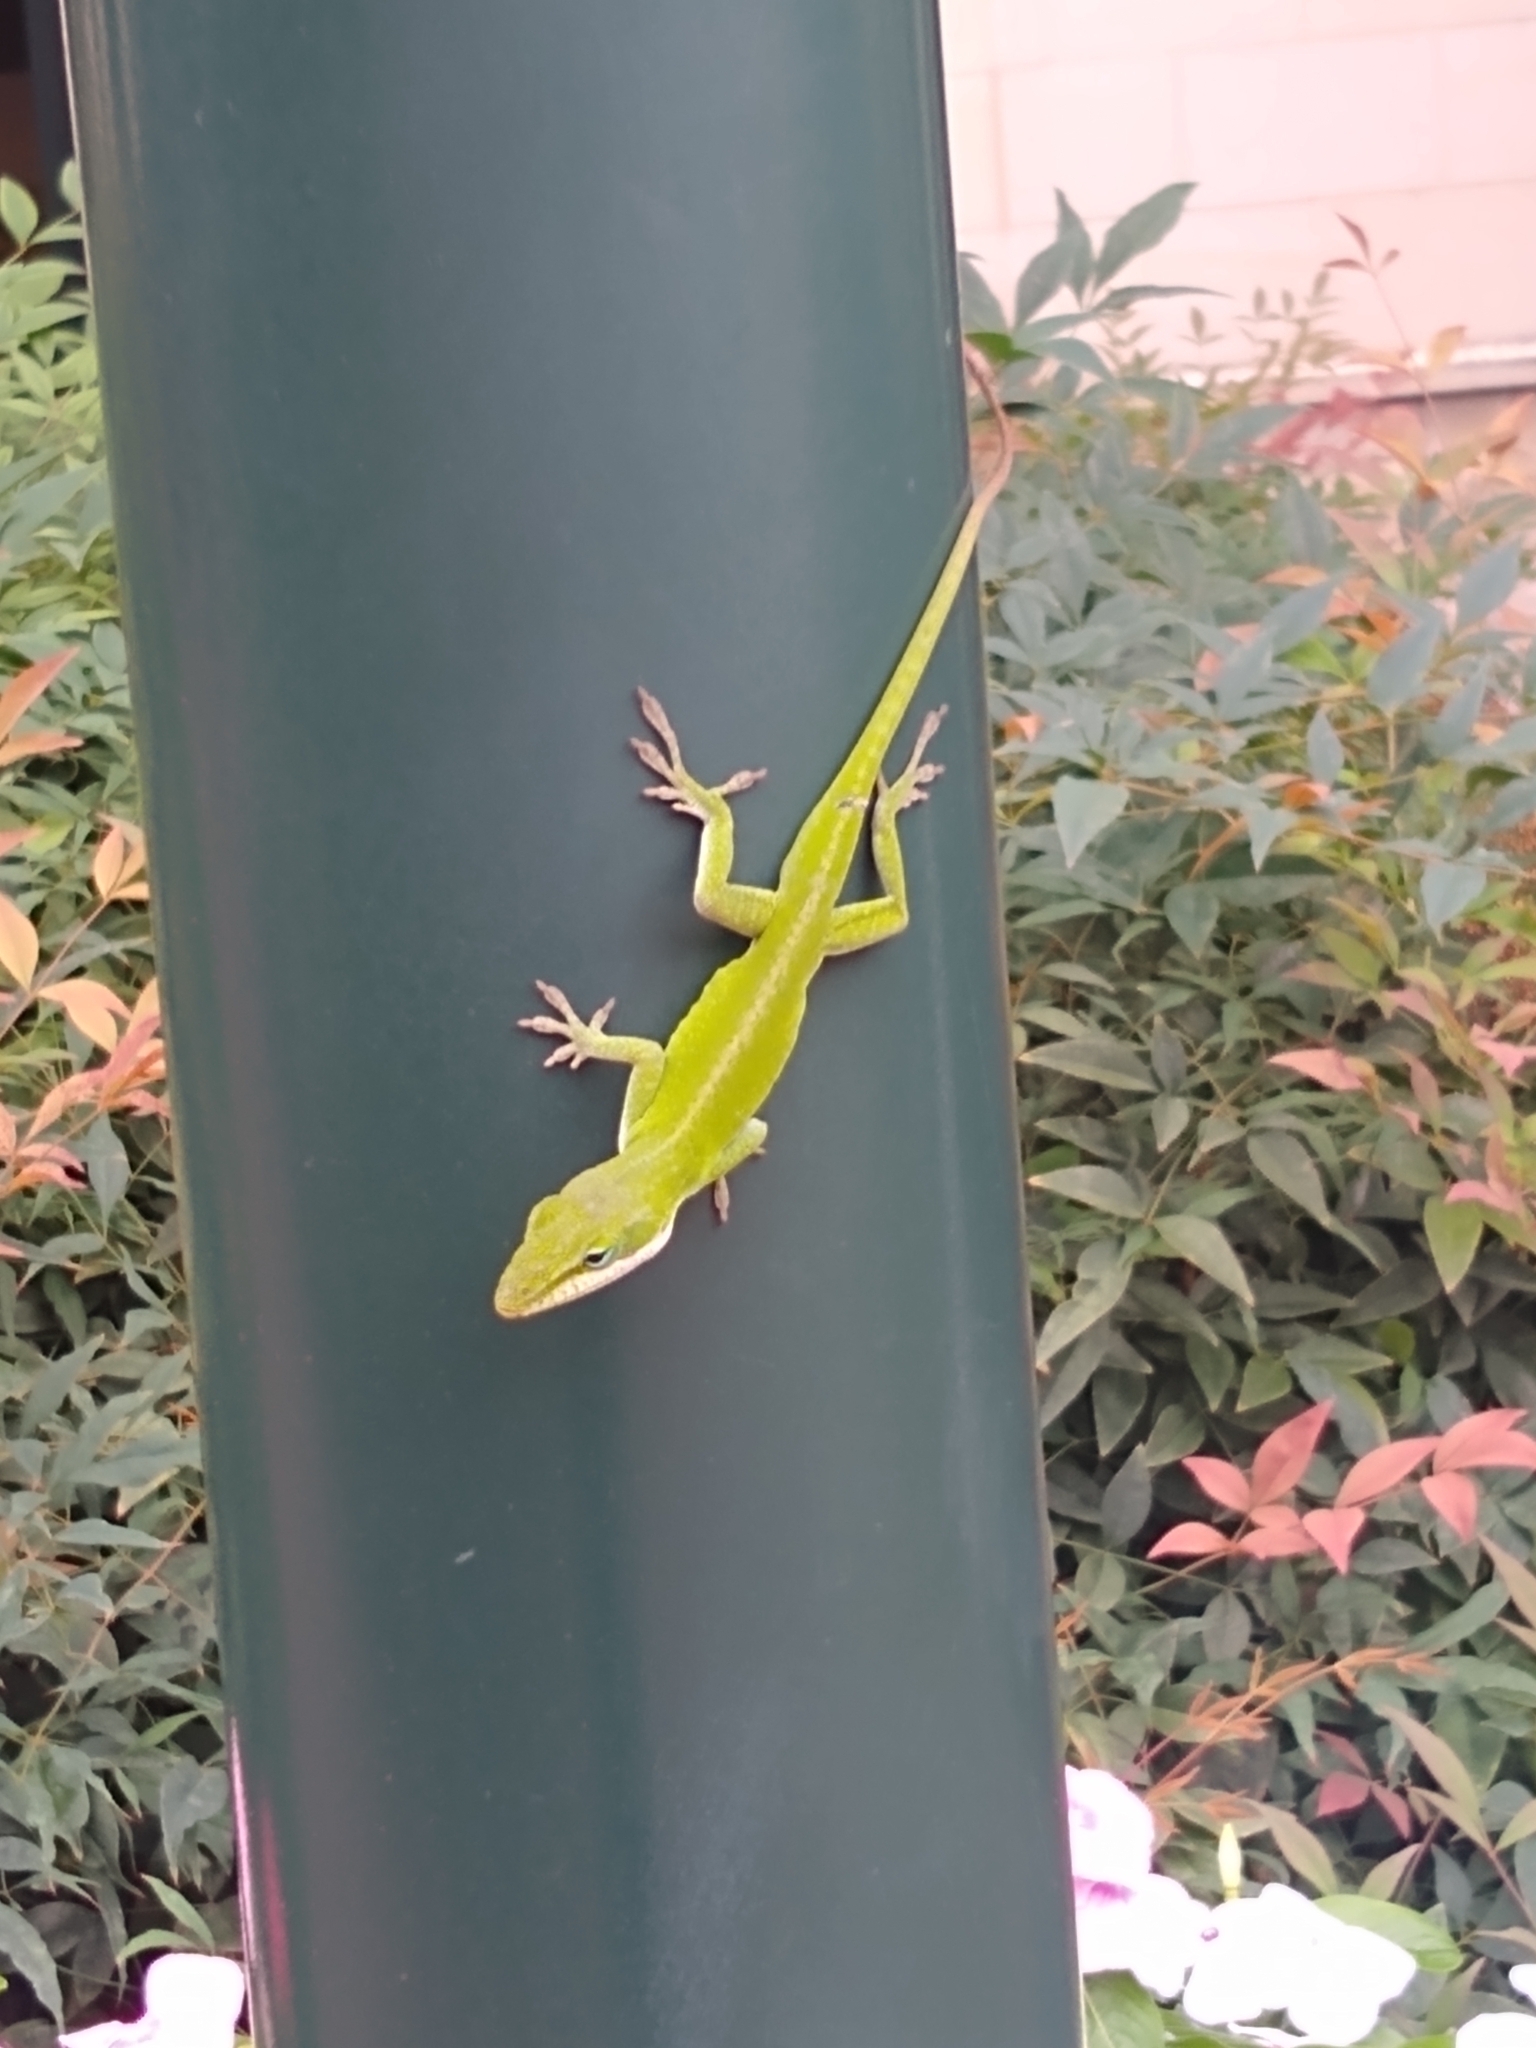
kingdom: Animalia
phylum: Chordata
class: Squamata
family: Dactyloidae
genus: Anolis
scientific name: Anolis carolinensis
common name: Green anole
